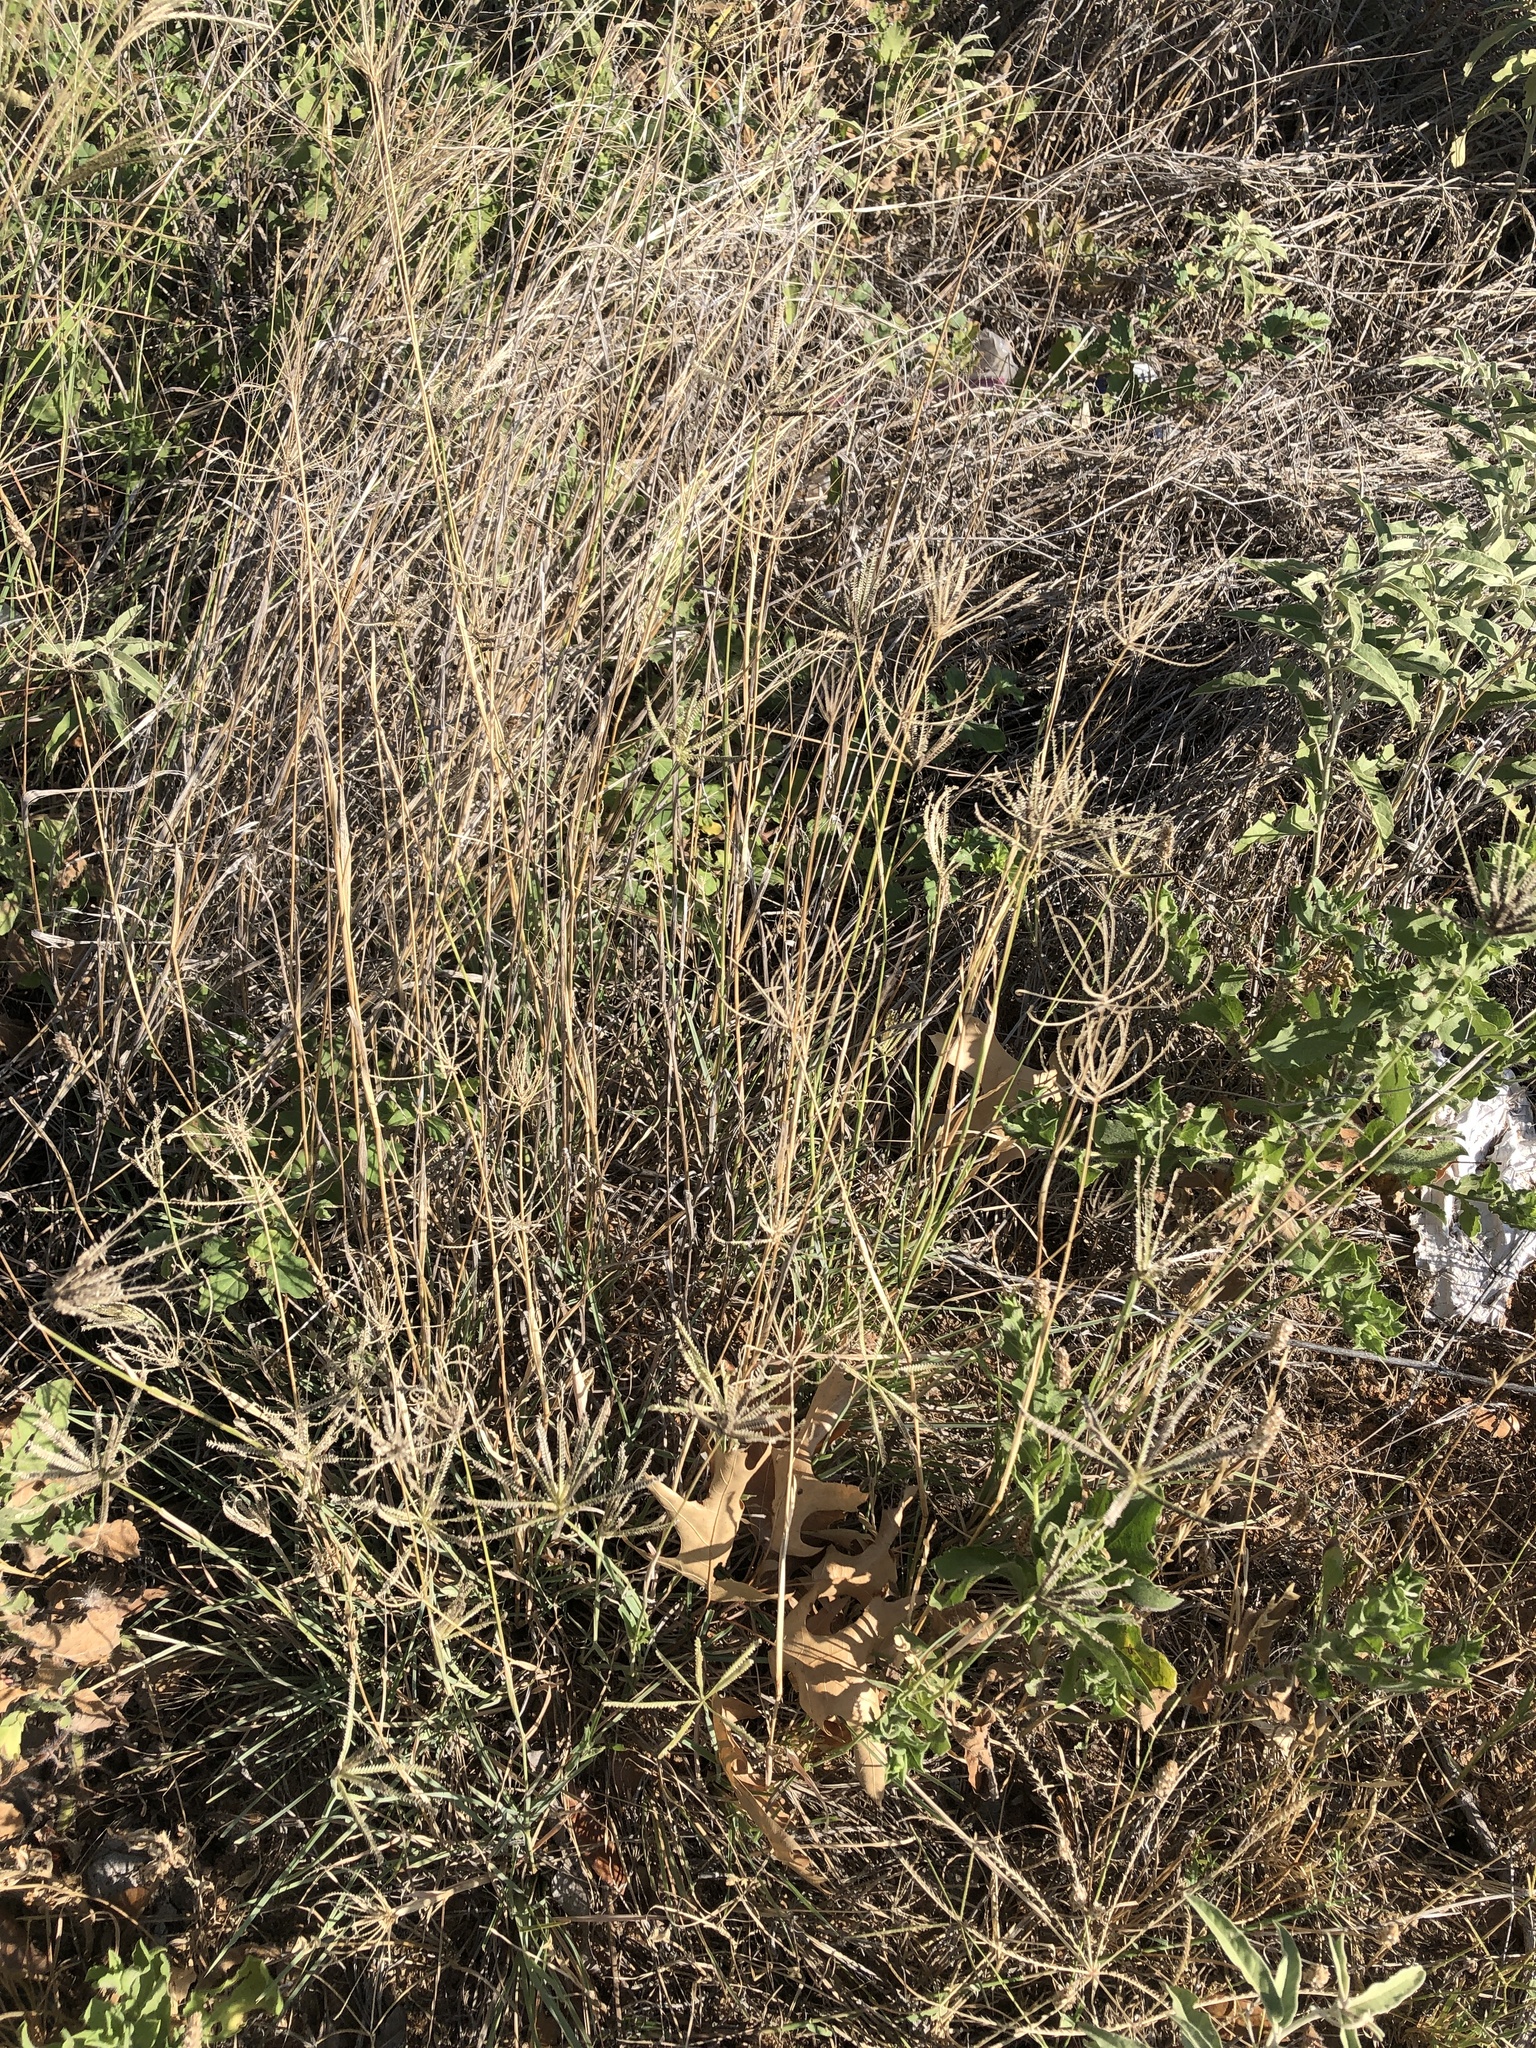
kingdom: Plantae
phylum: Tracheophyta
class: Liliopsida
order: Poales
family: Poaceae
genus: Chloris
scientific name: Chloris cucullata
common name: Hooded windmill grass
